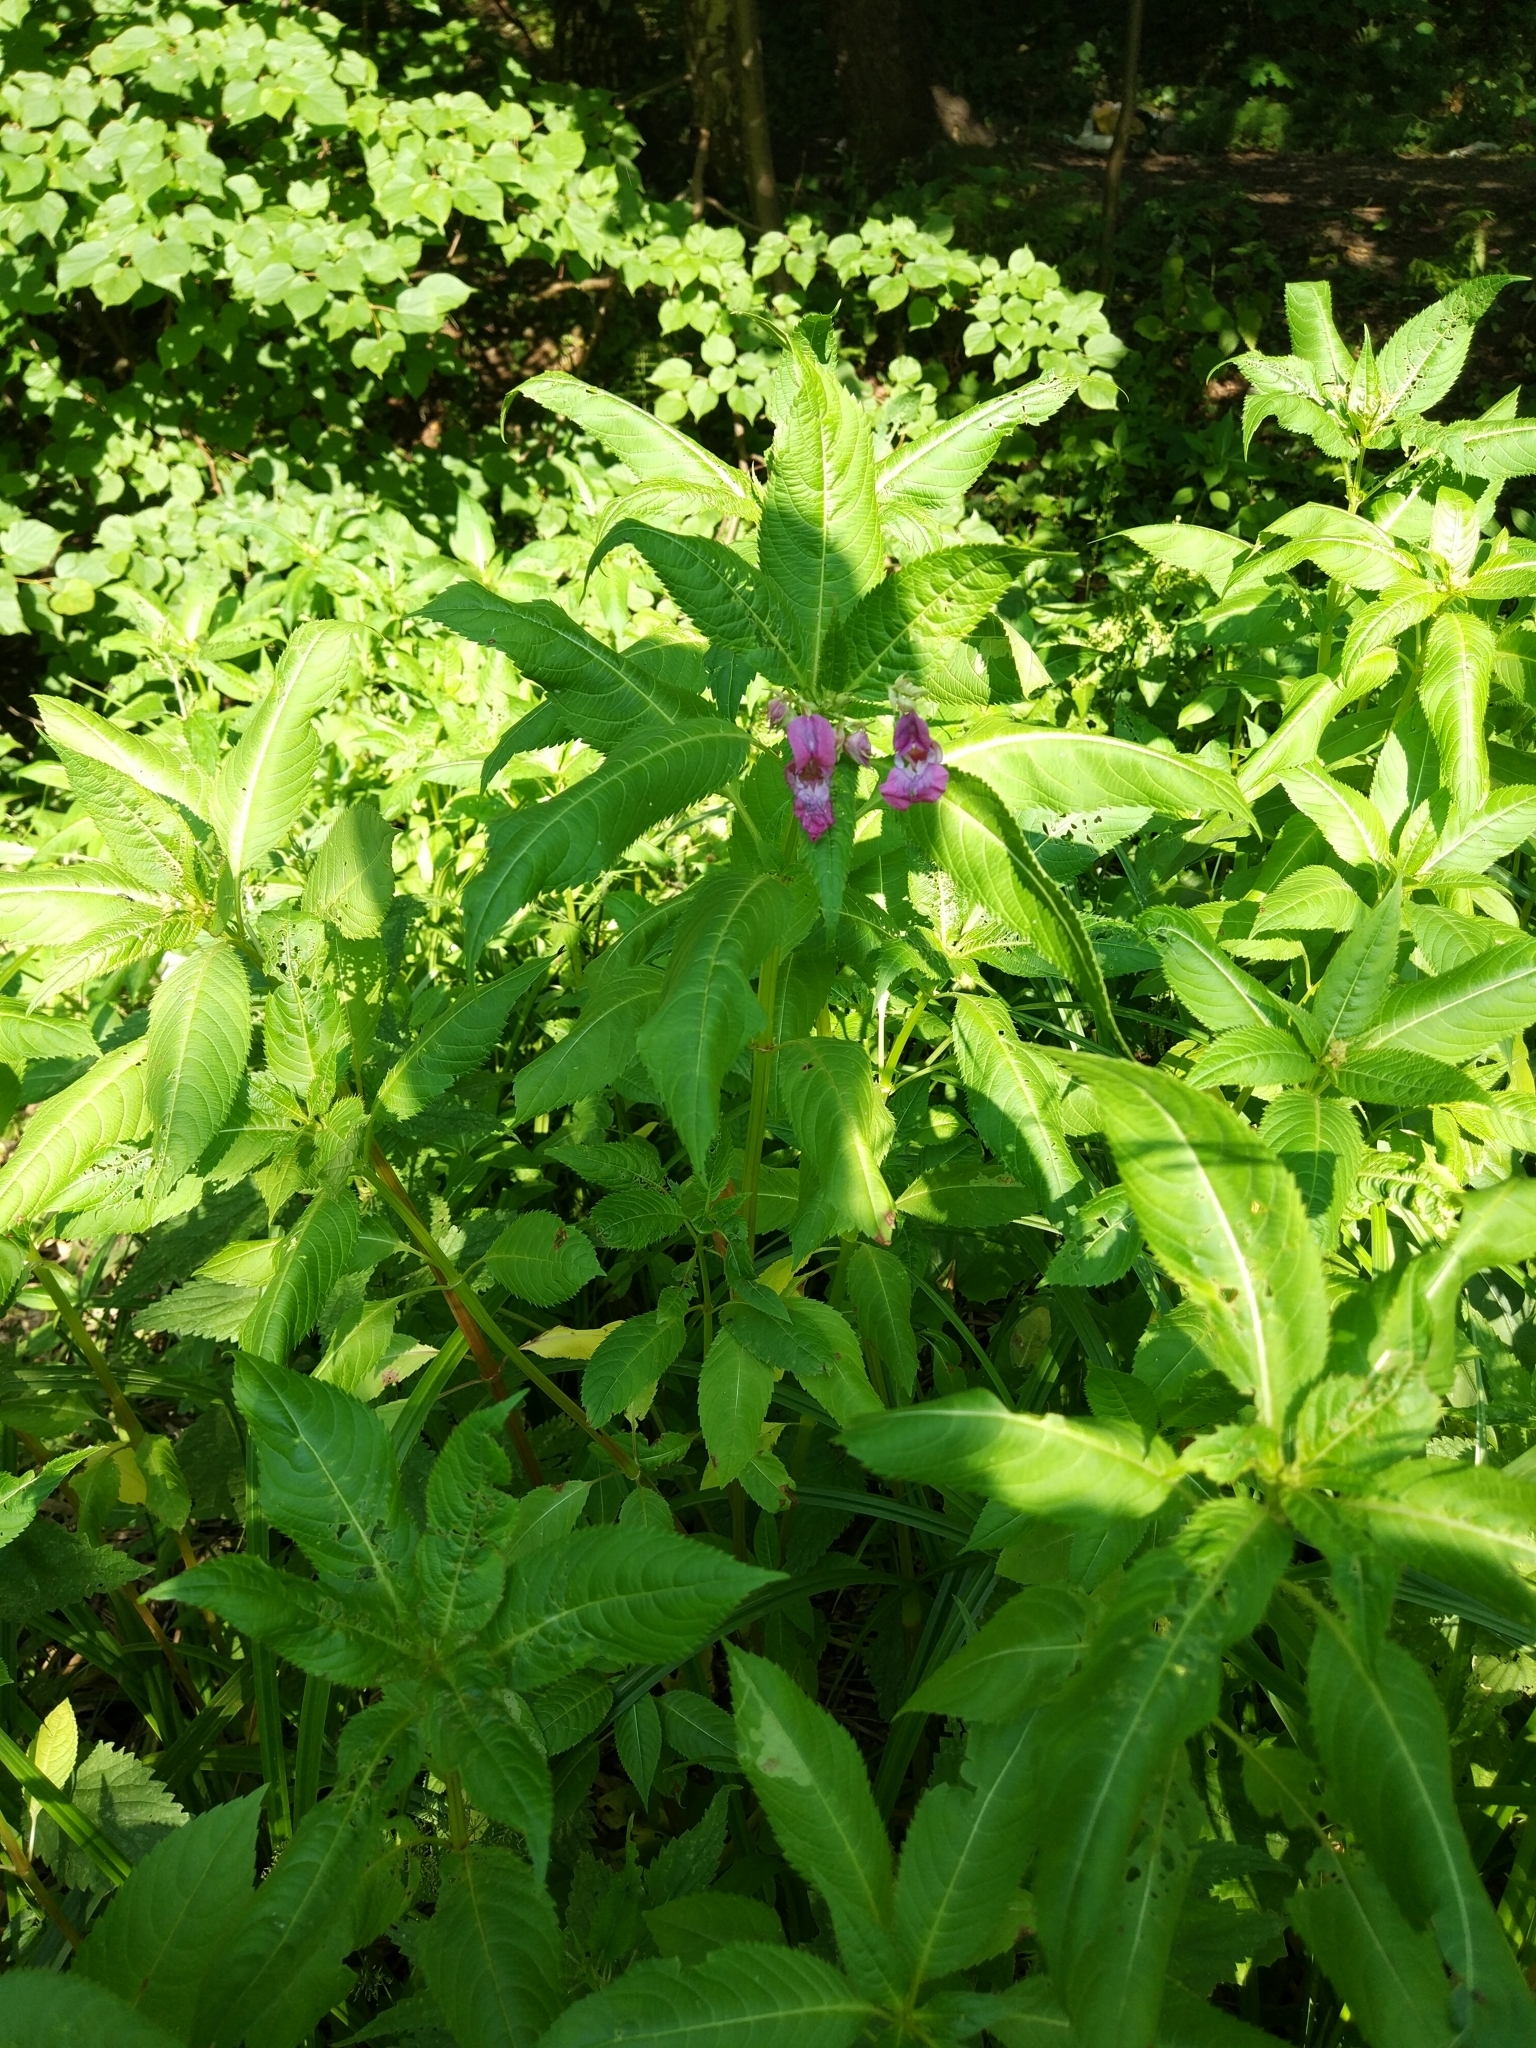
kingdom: Plantae
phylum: Tracheophyta
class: Magnoliopsida
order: Ericales
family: Balsaminaceae
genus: Impatiens
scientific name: Impatiens glandulifera
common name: Himalayan balsam
